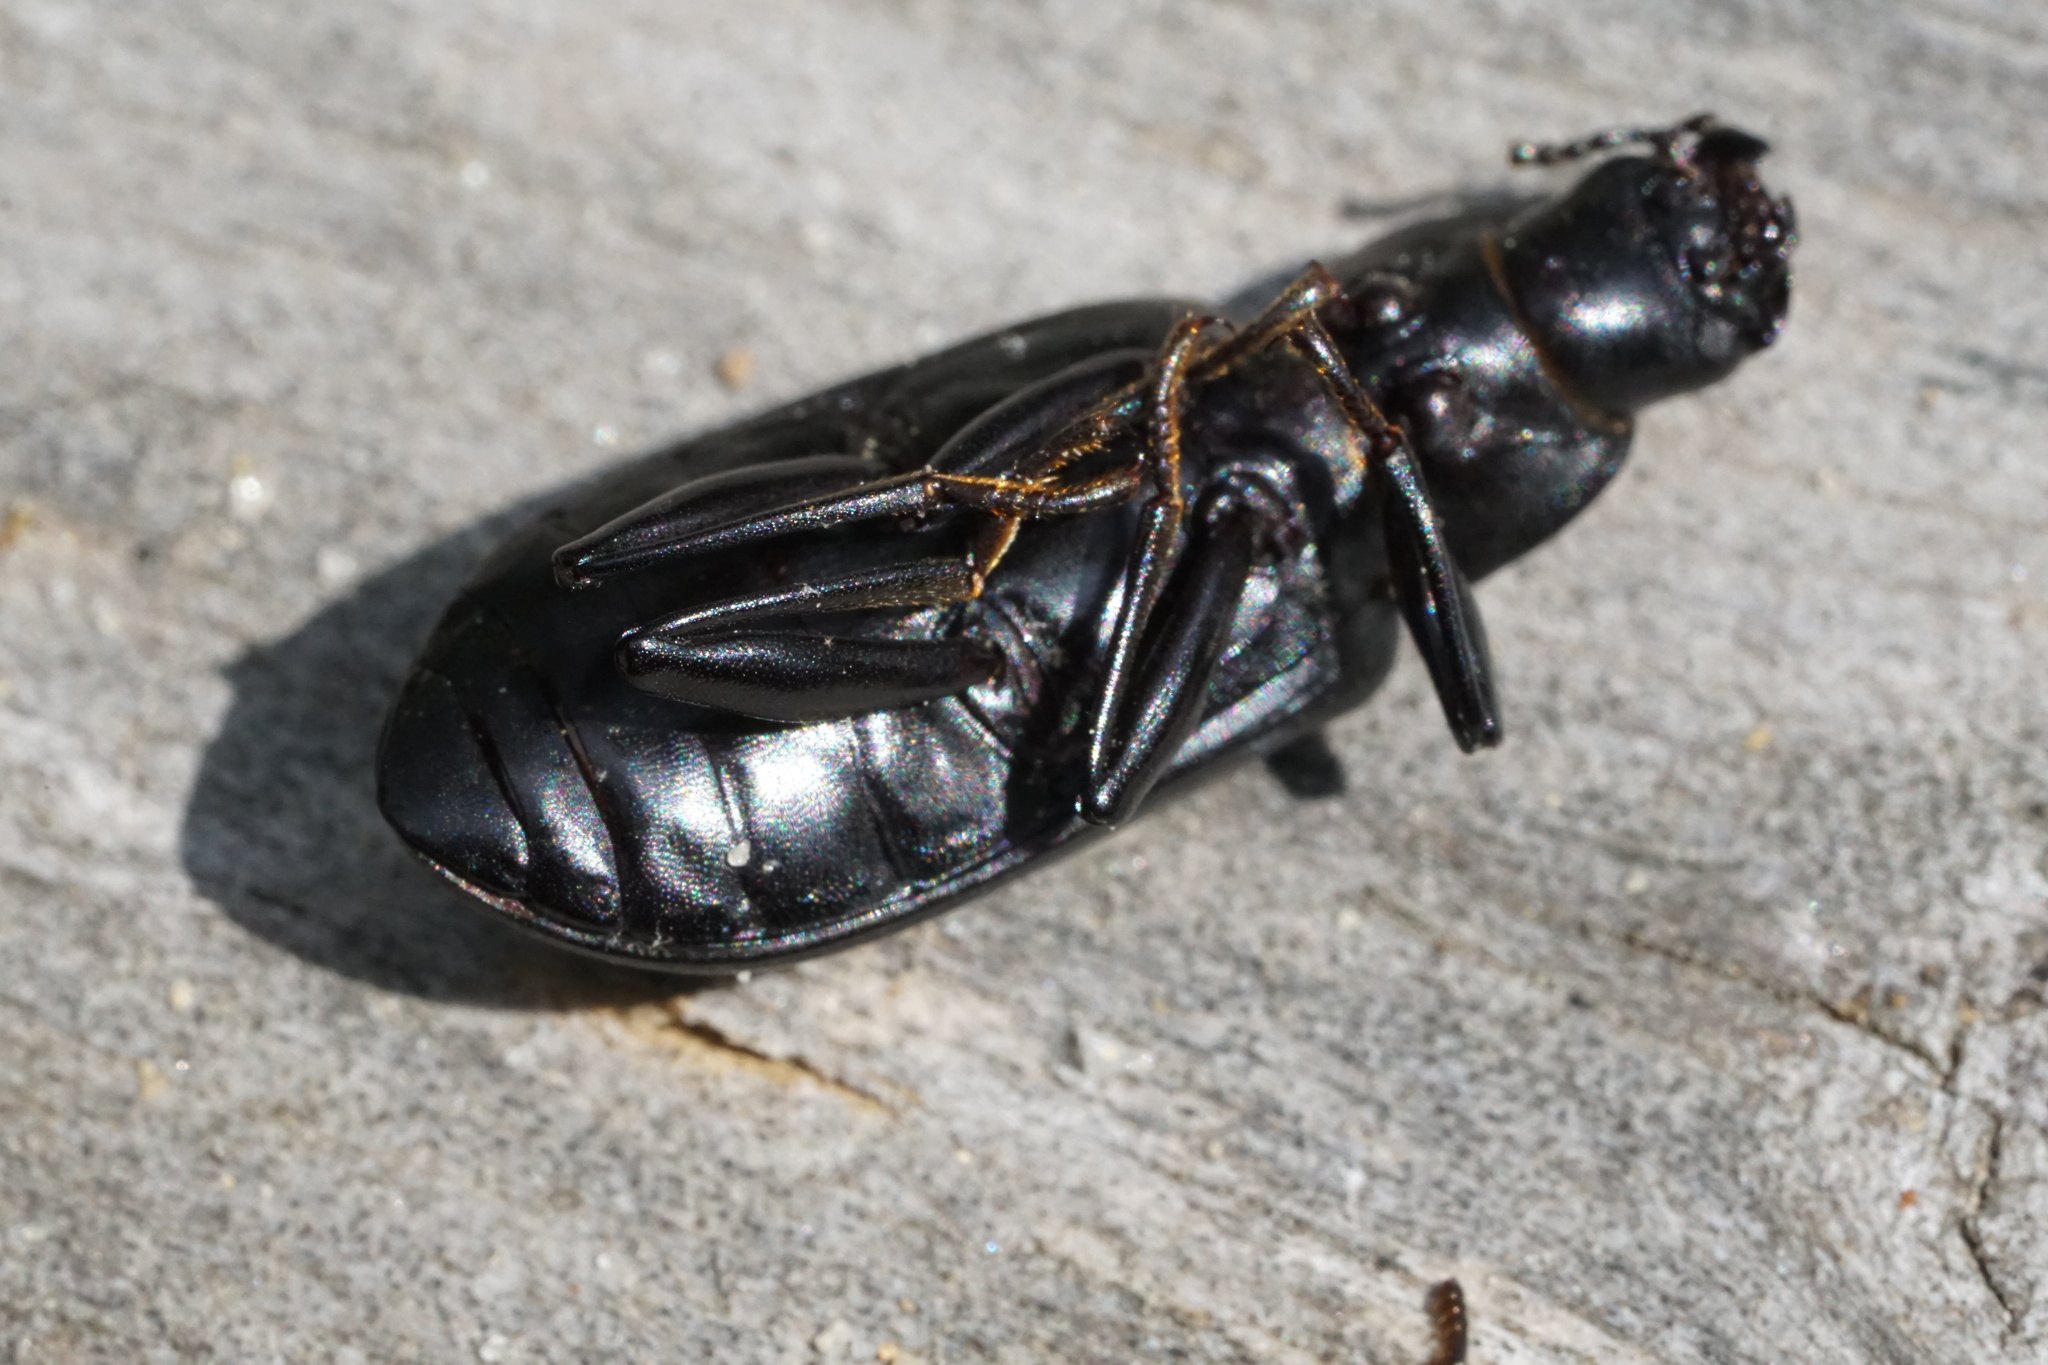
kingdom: Animalia
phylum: Arthropoda
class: Insecta
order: Coleoptera
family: Tenebrionidae
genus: Alobates
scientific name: Alobates pensylvanicus
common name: False mealworm beetle
